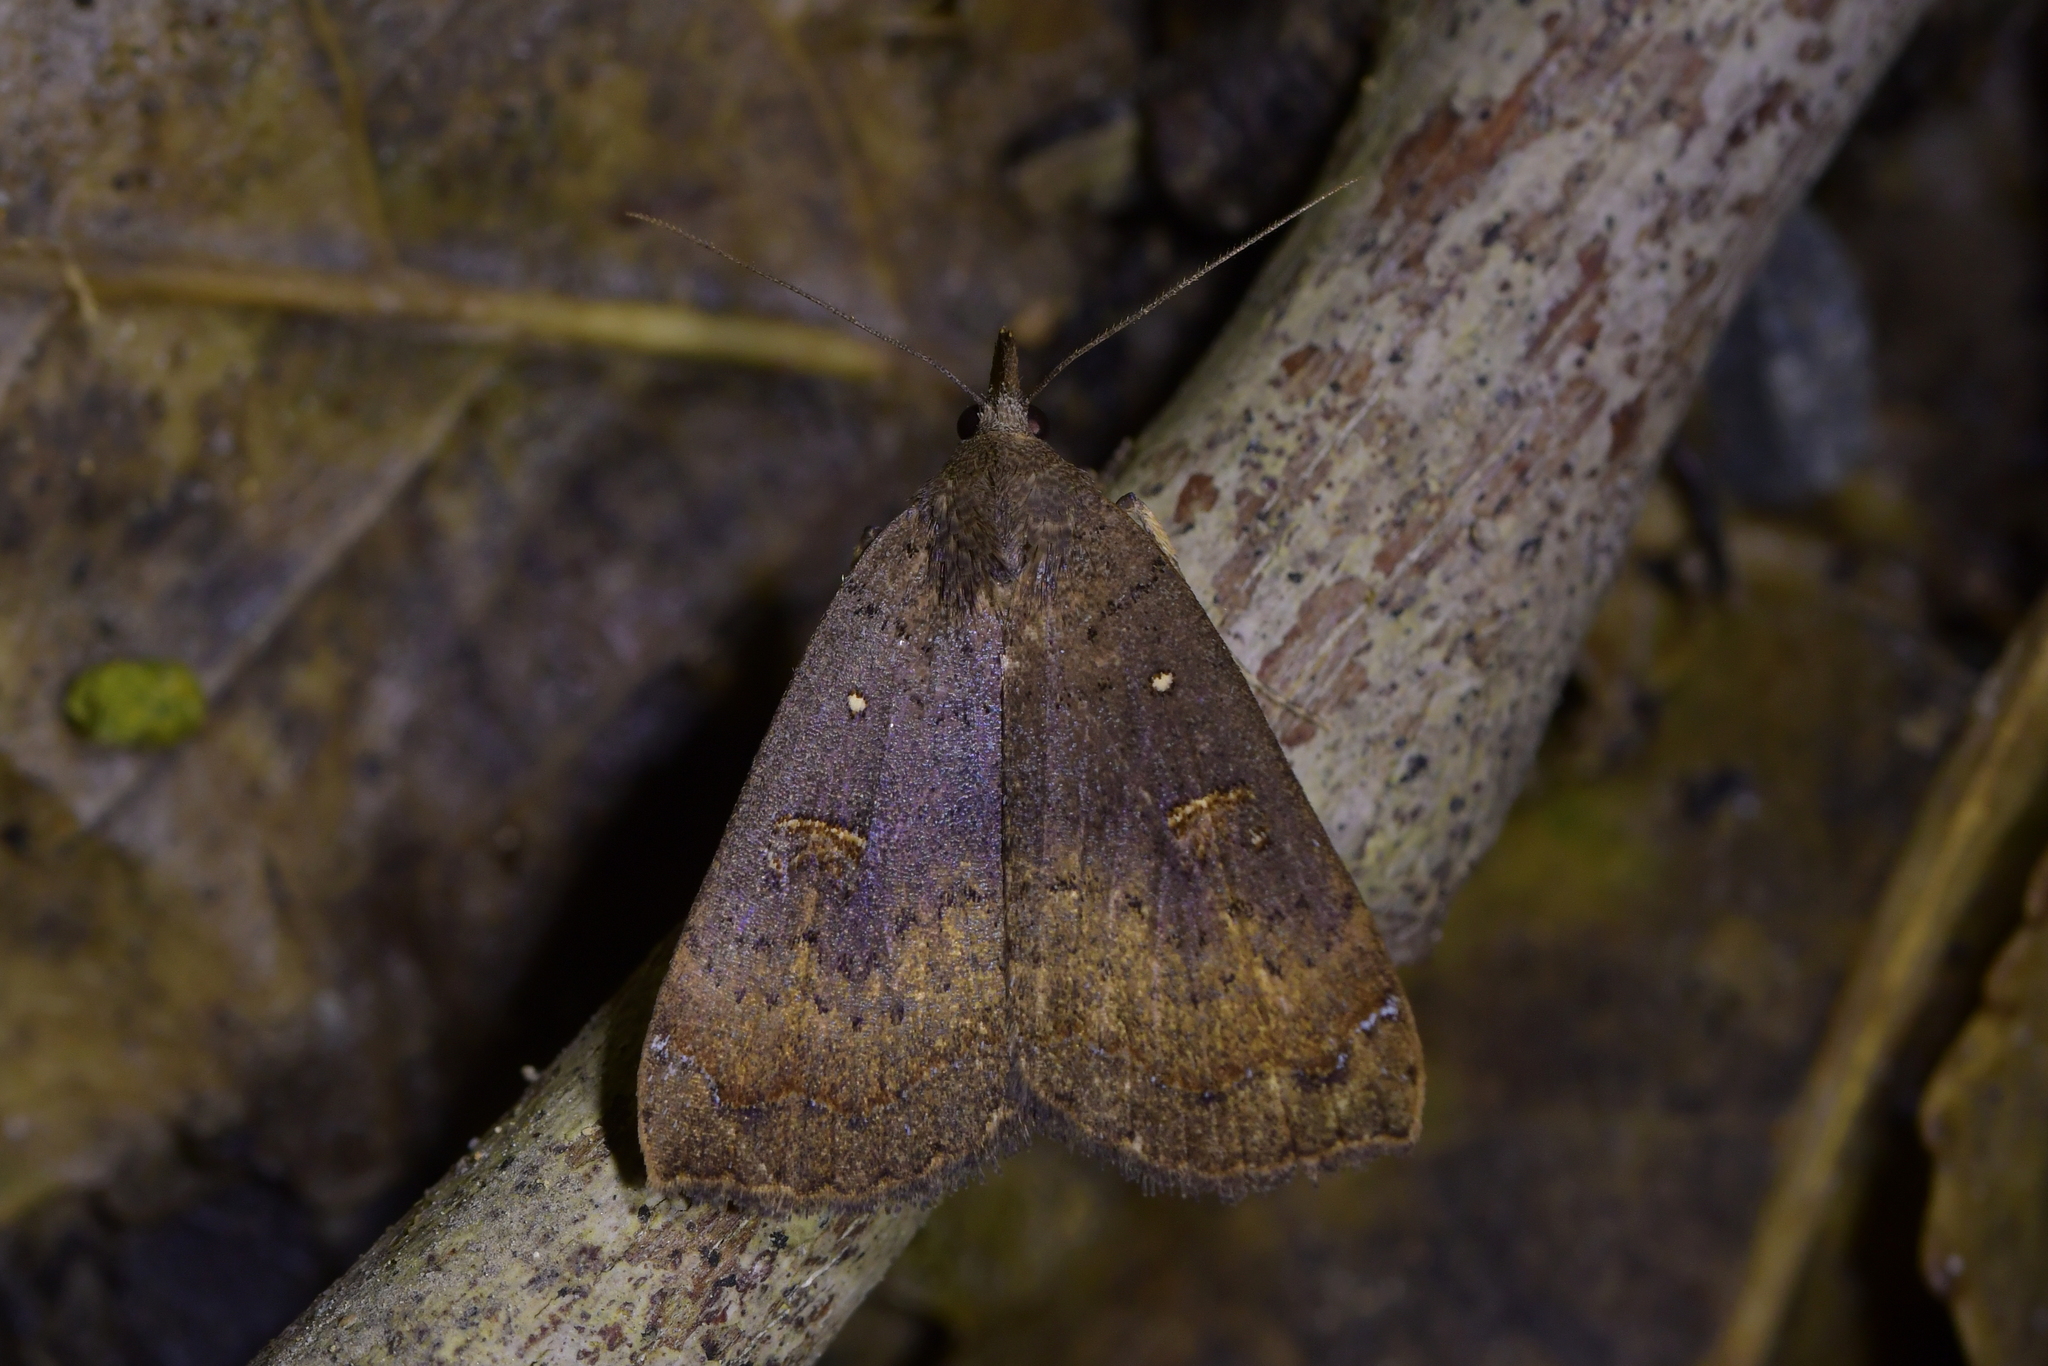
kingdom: Animalia
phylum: Arthropoda
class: Insecta
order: Lepidoptera
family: Erebidae
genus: Rhapsa
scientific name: Rhapsa scotosialis
